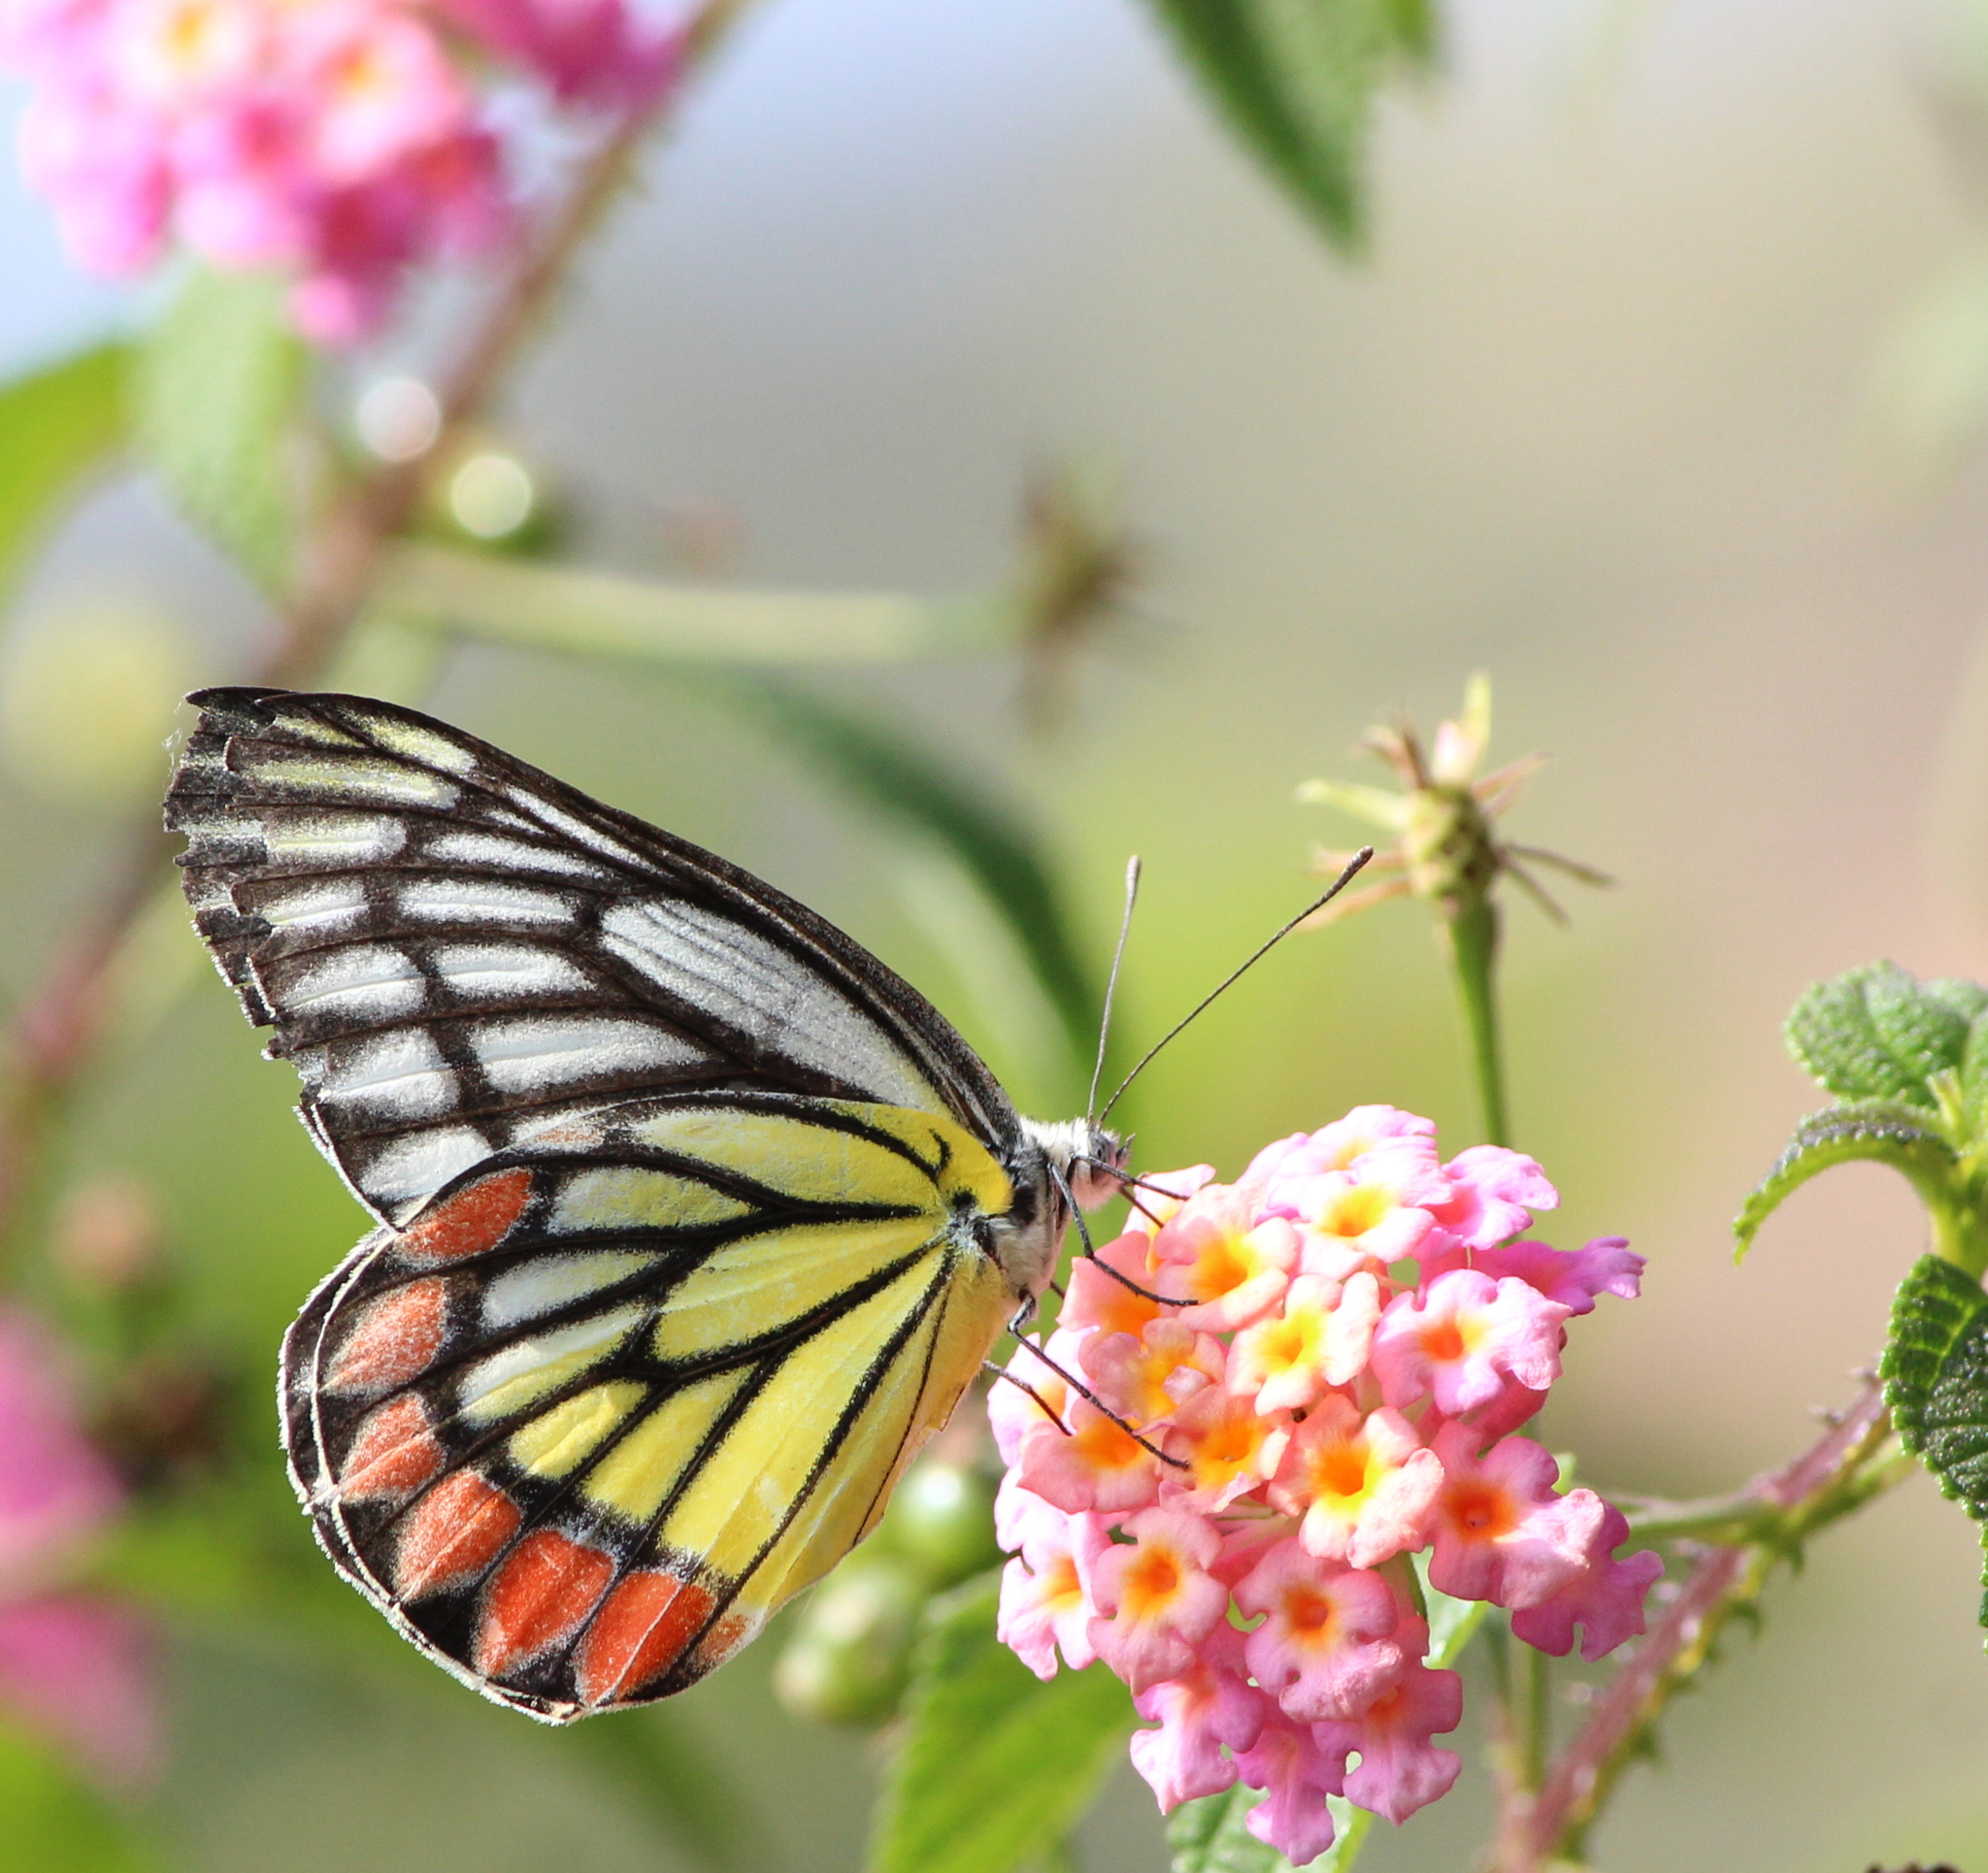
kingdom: Animalia
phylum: Arthropoda
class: Insecta
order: Lepidoptera
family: Pieridae
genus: Delias
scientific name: Delias eucharis
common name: Common jezebel
